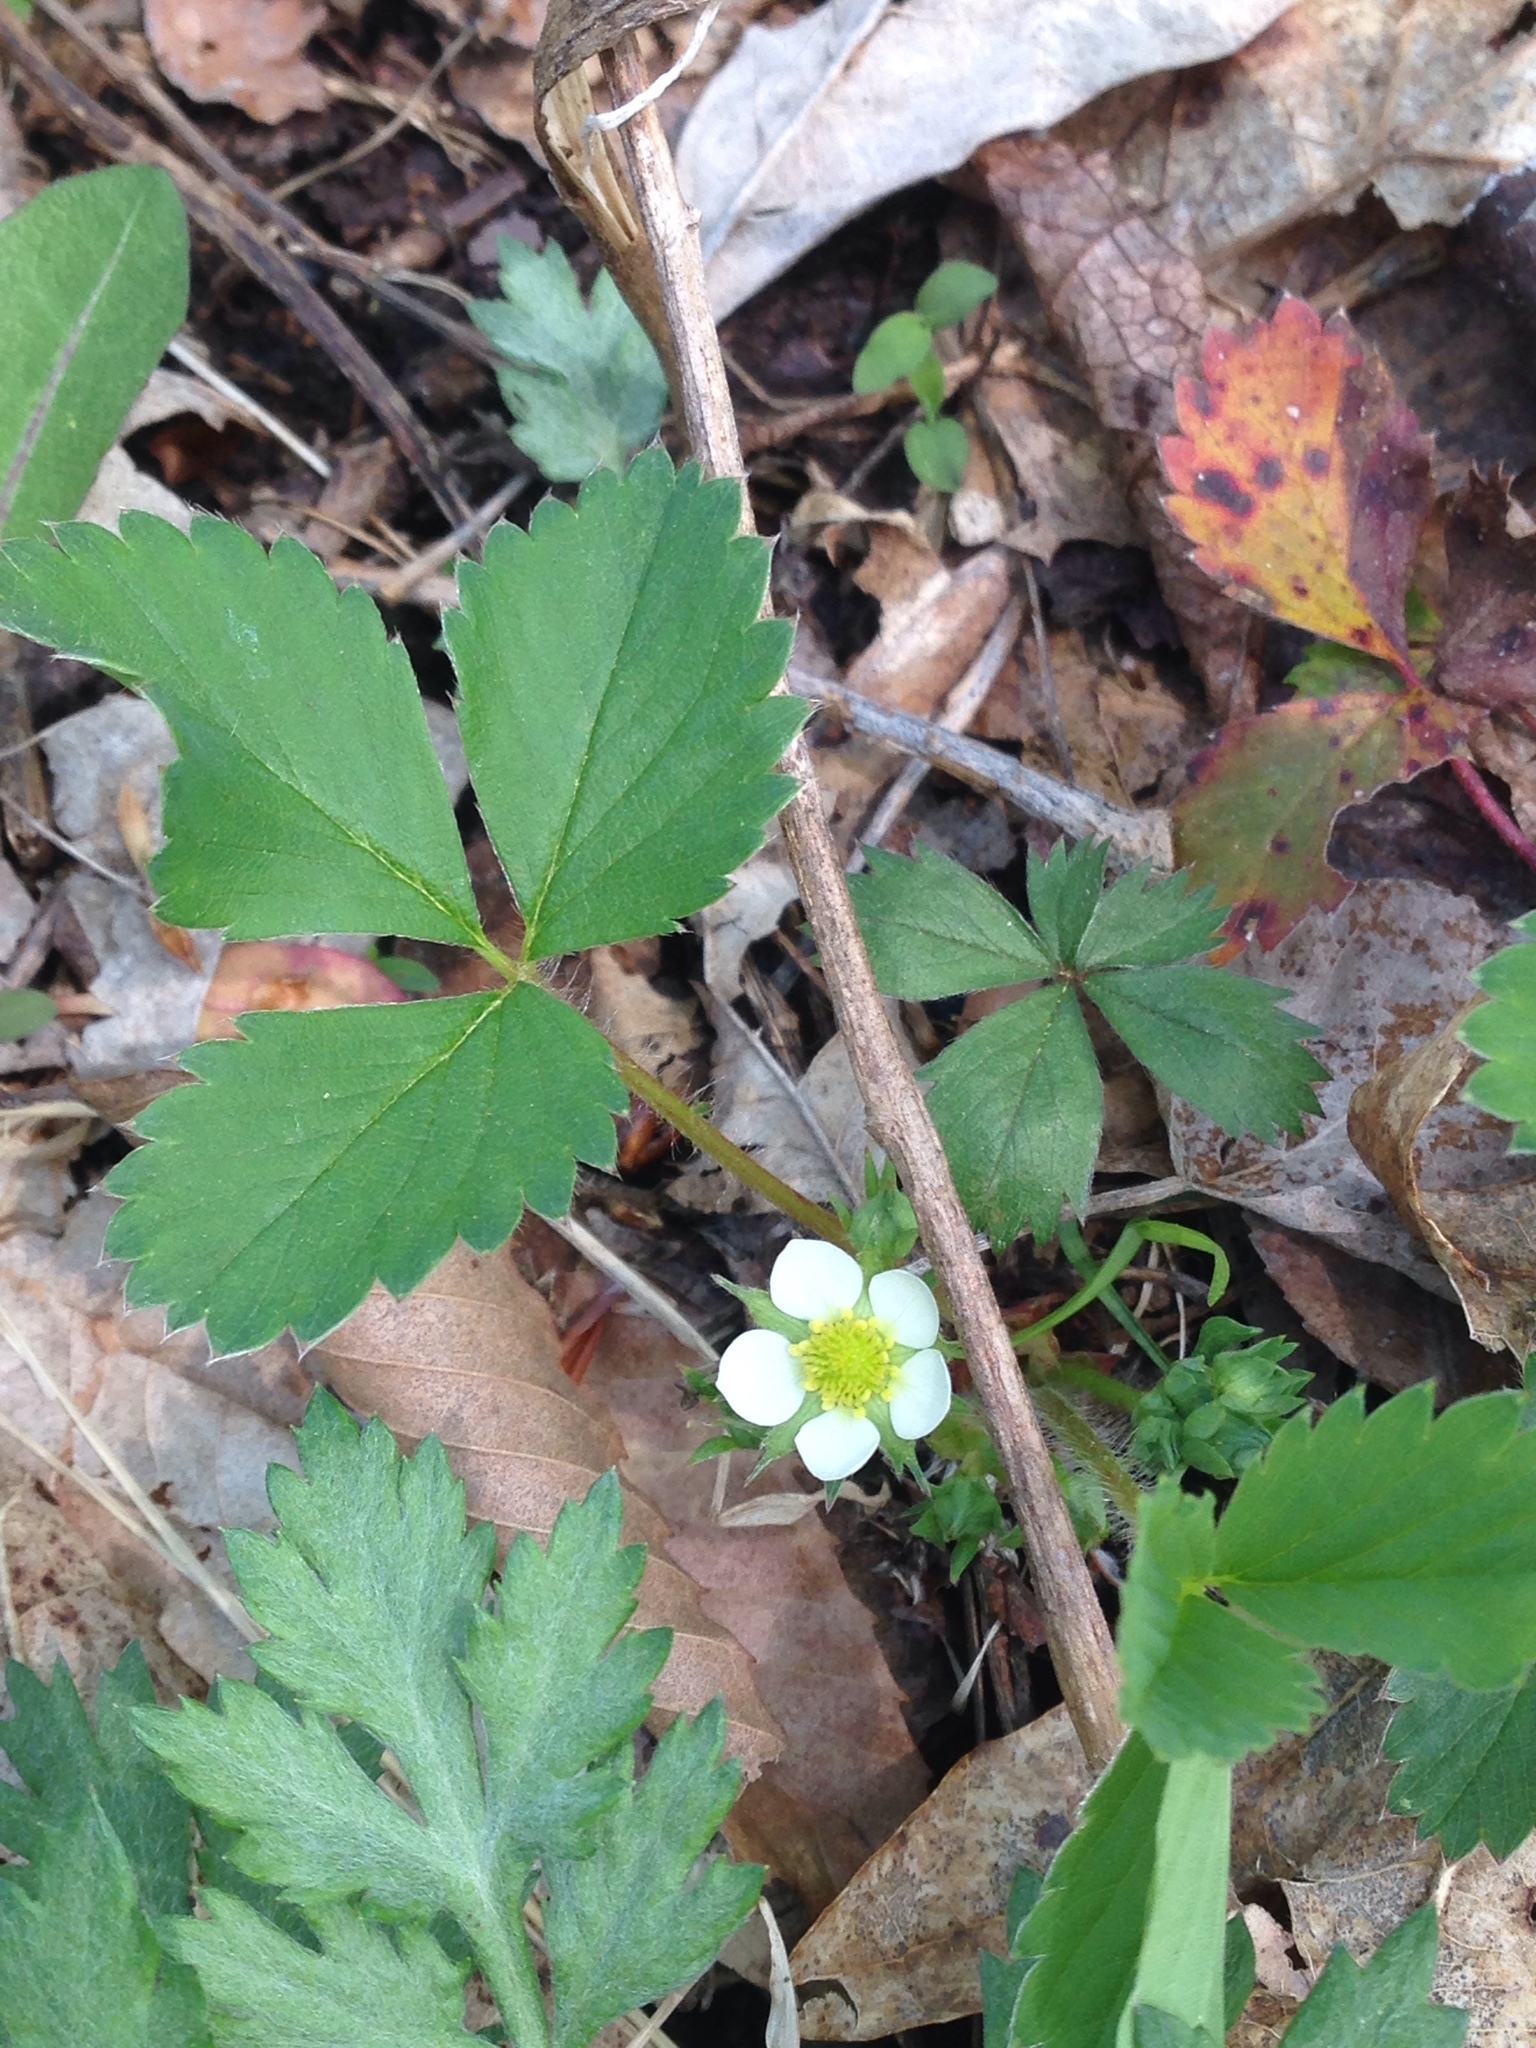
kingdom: Plantae
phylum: Tracheophyta
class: Magnoliopsida
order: Rosales
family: Rosaceae
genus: Fragaria
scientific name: Fragaria virginiana
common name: Thickleaved wild strawberry
